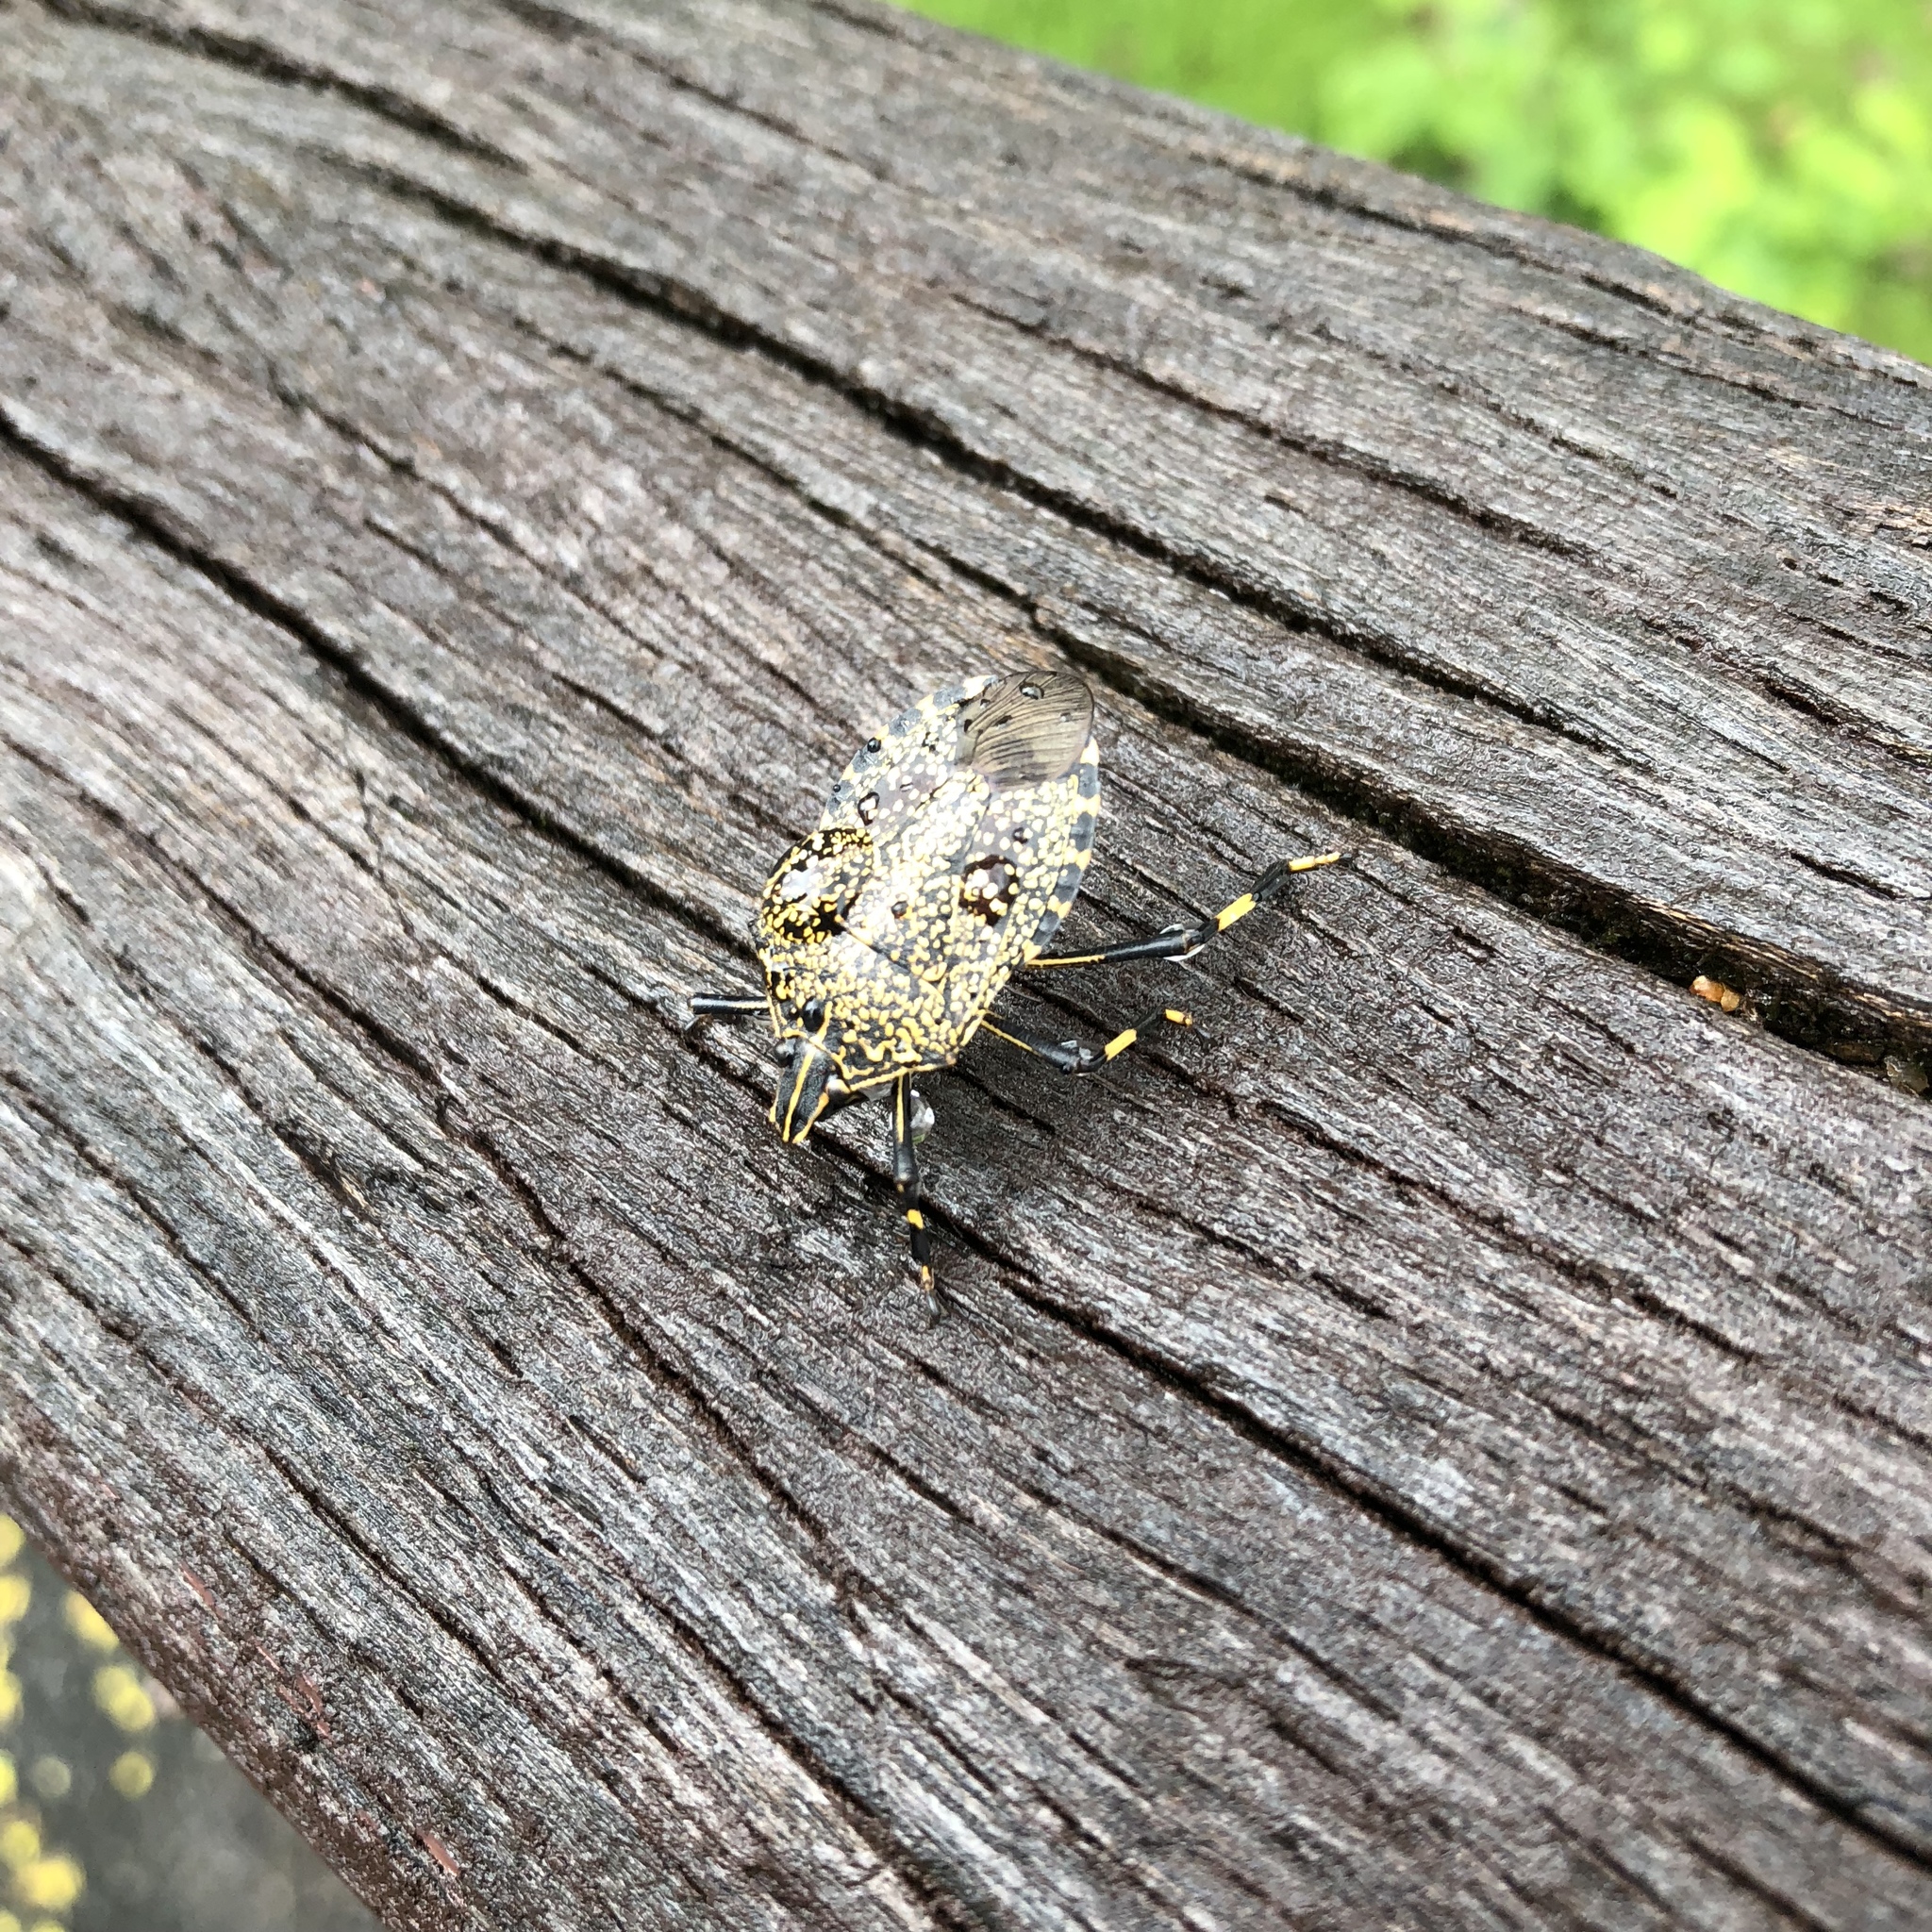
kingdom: Animalia
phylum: Arthropoda
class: Insecta
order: Hemiptera
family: Pentatomidae
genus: Erthesina
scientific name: Erthesina fullo
